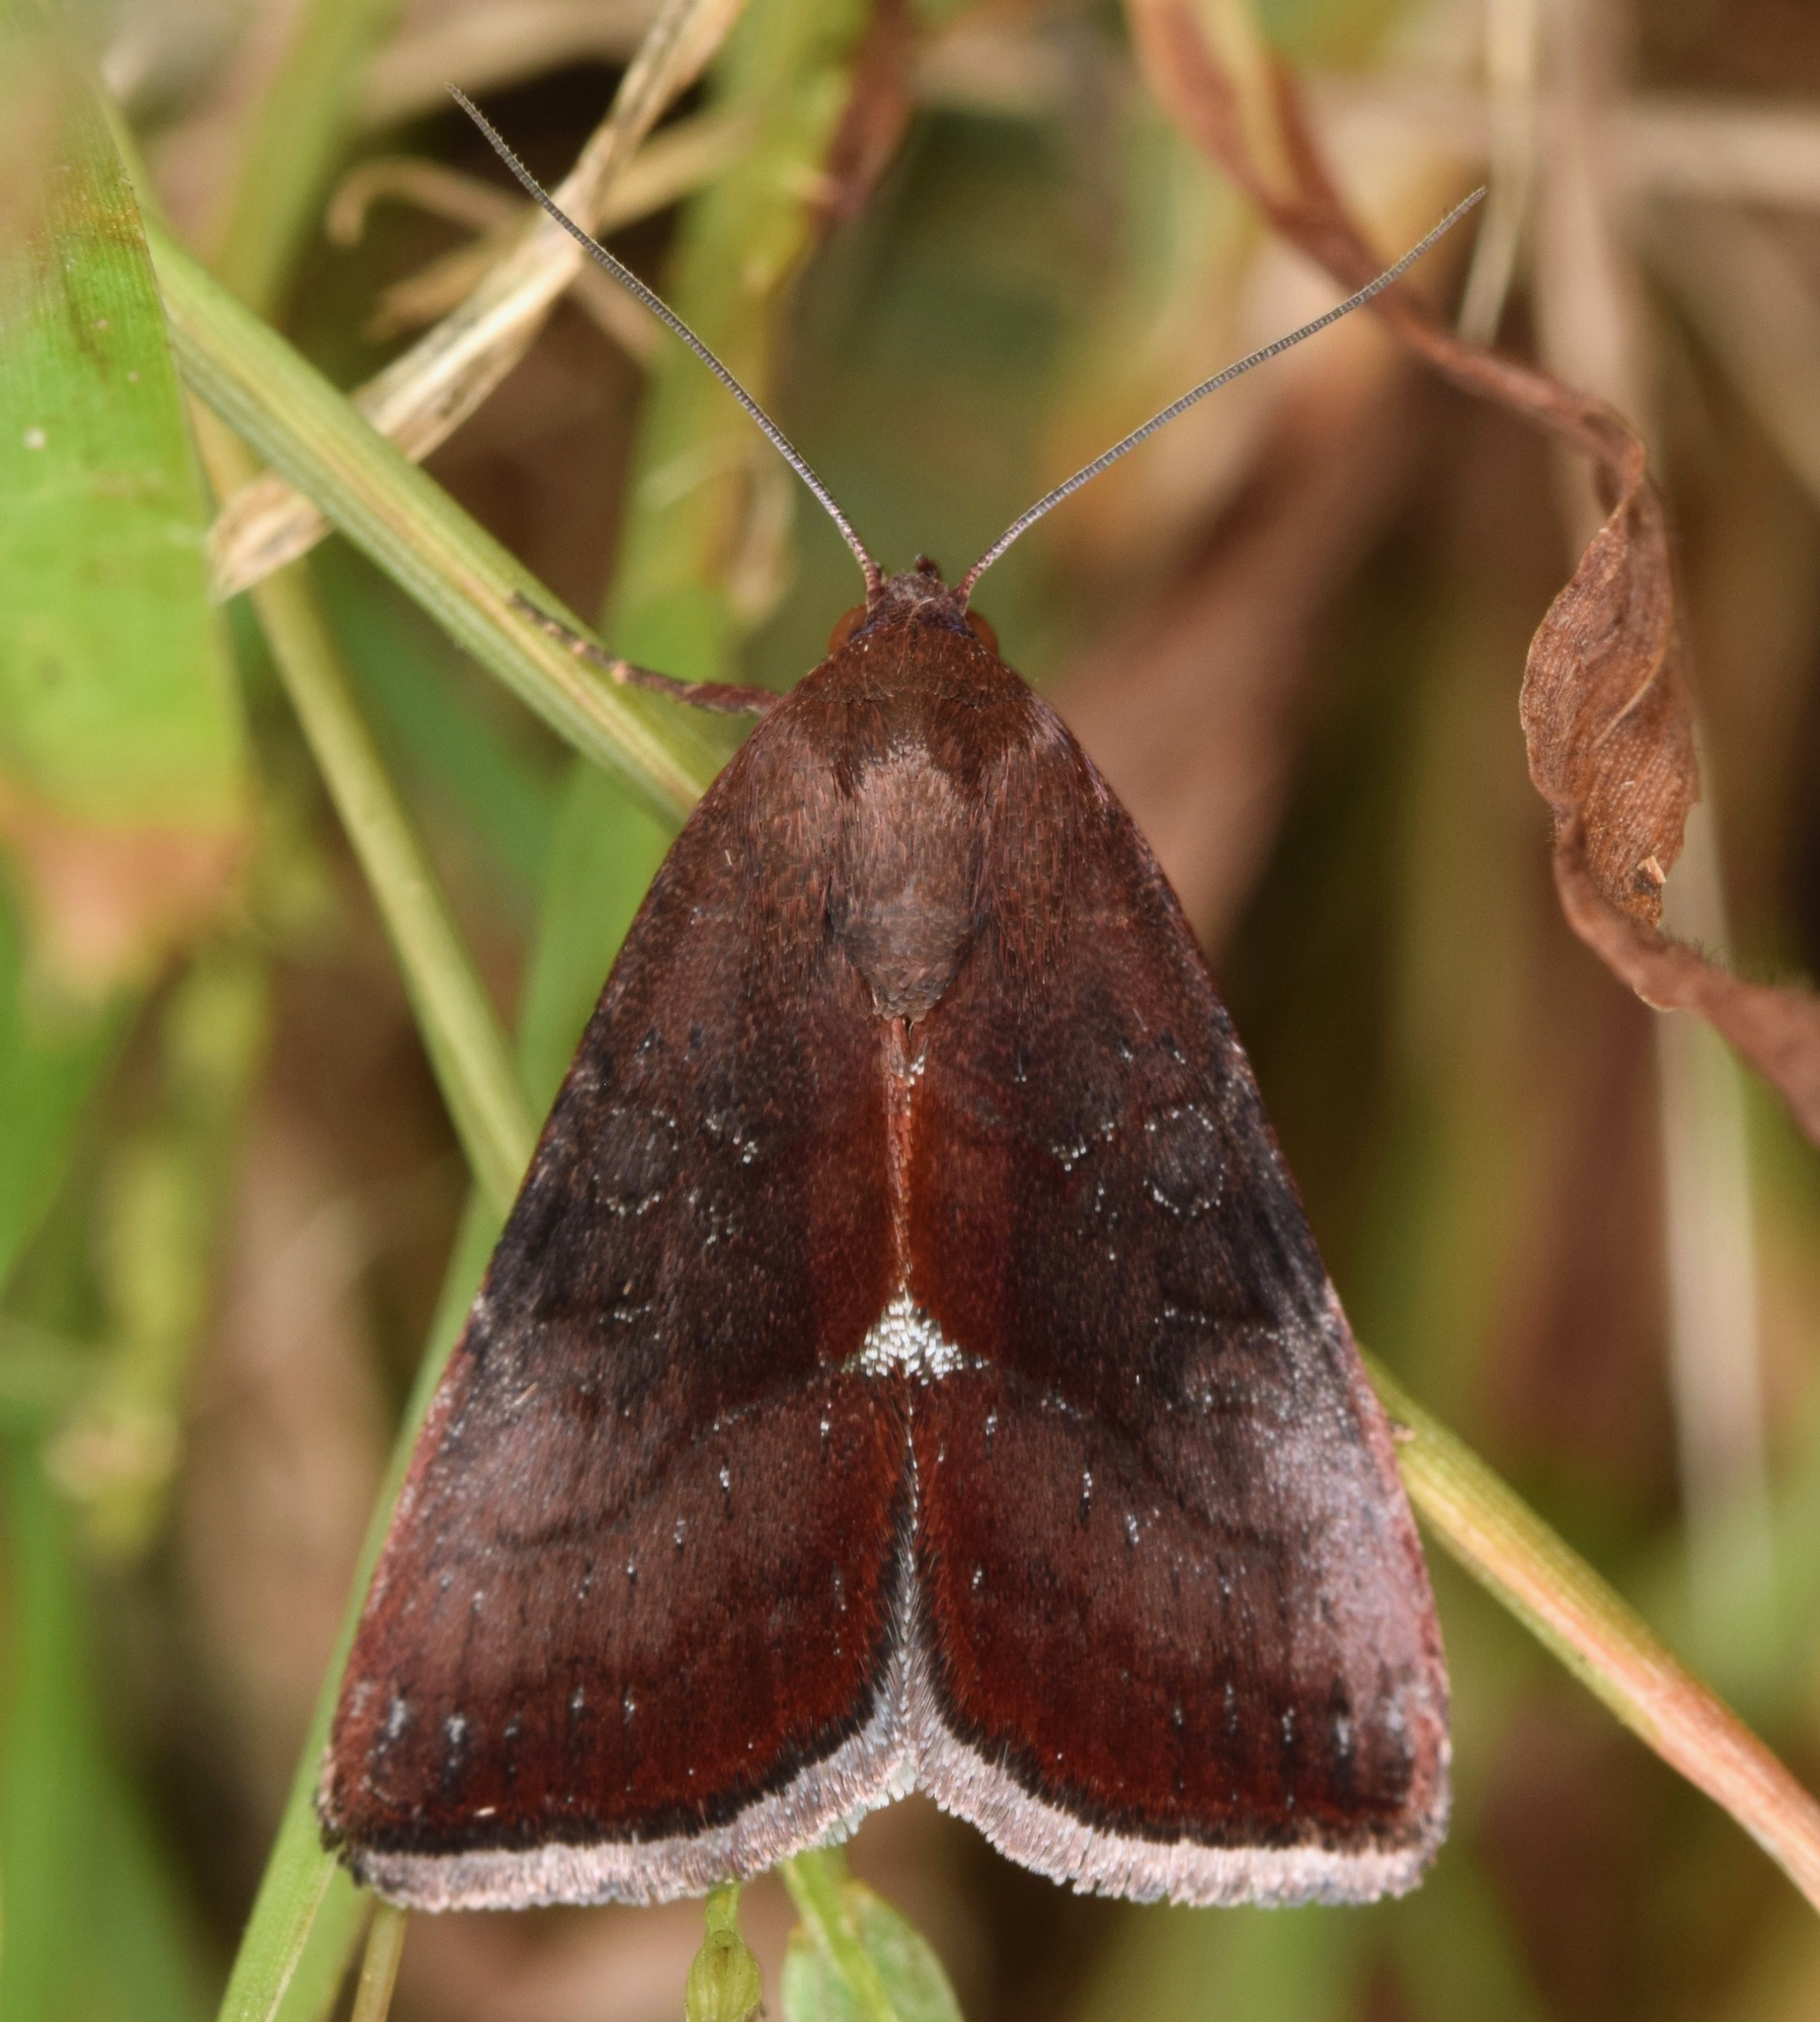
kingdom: Animalia
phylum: Arthropoda
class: Insecta
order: Lepidoptera
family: Noctuidae
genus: Galgula
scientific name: Galgula partita
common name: Wedgeling
